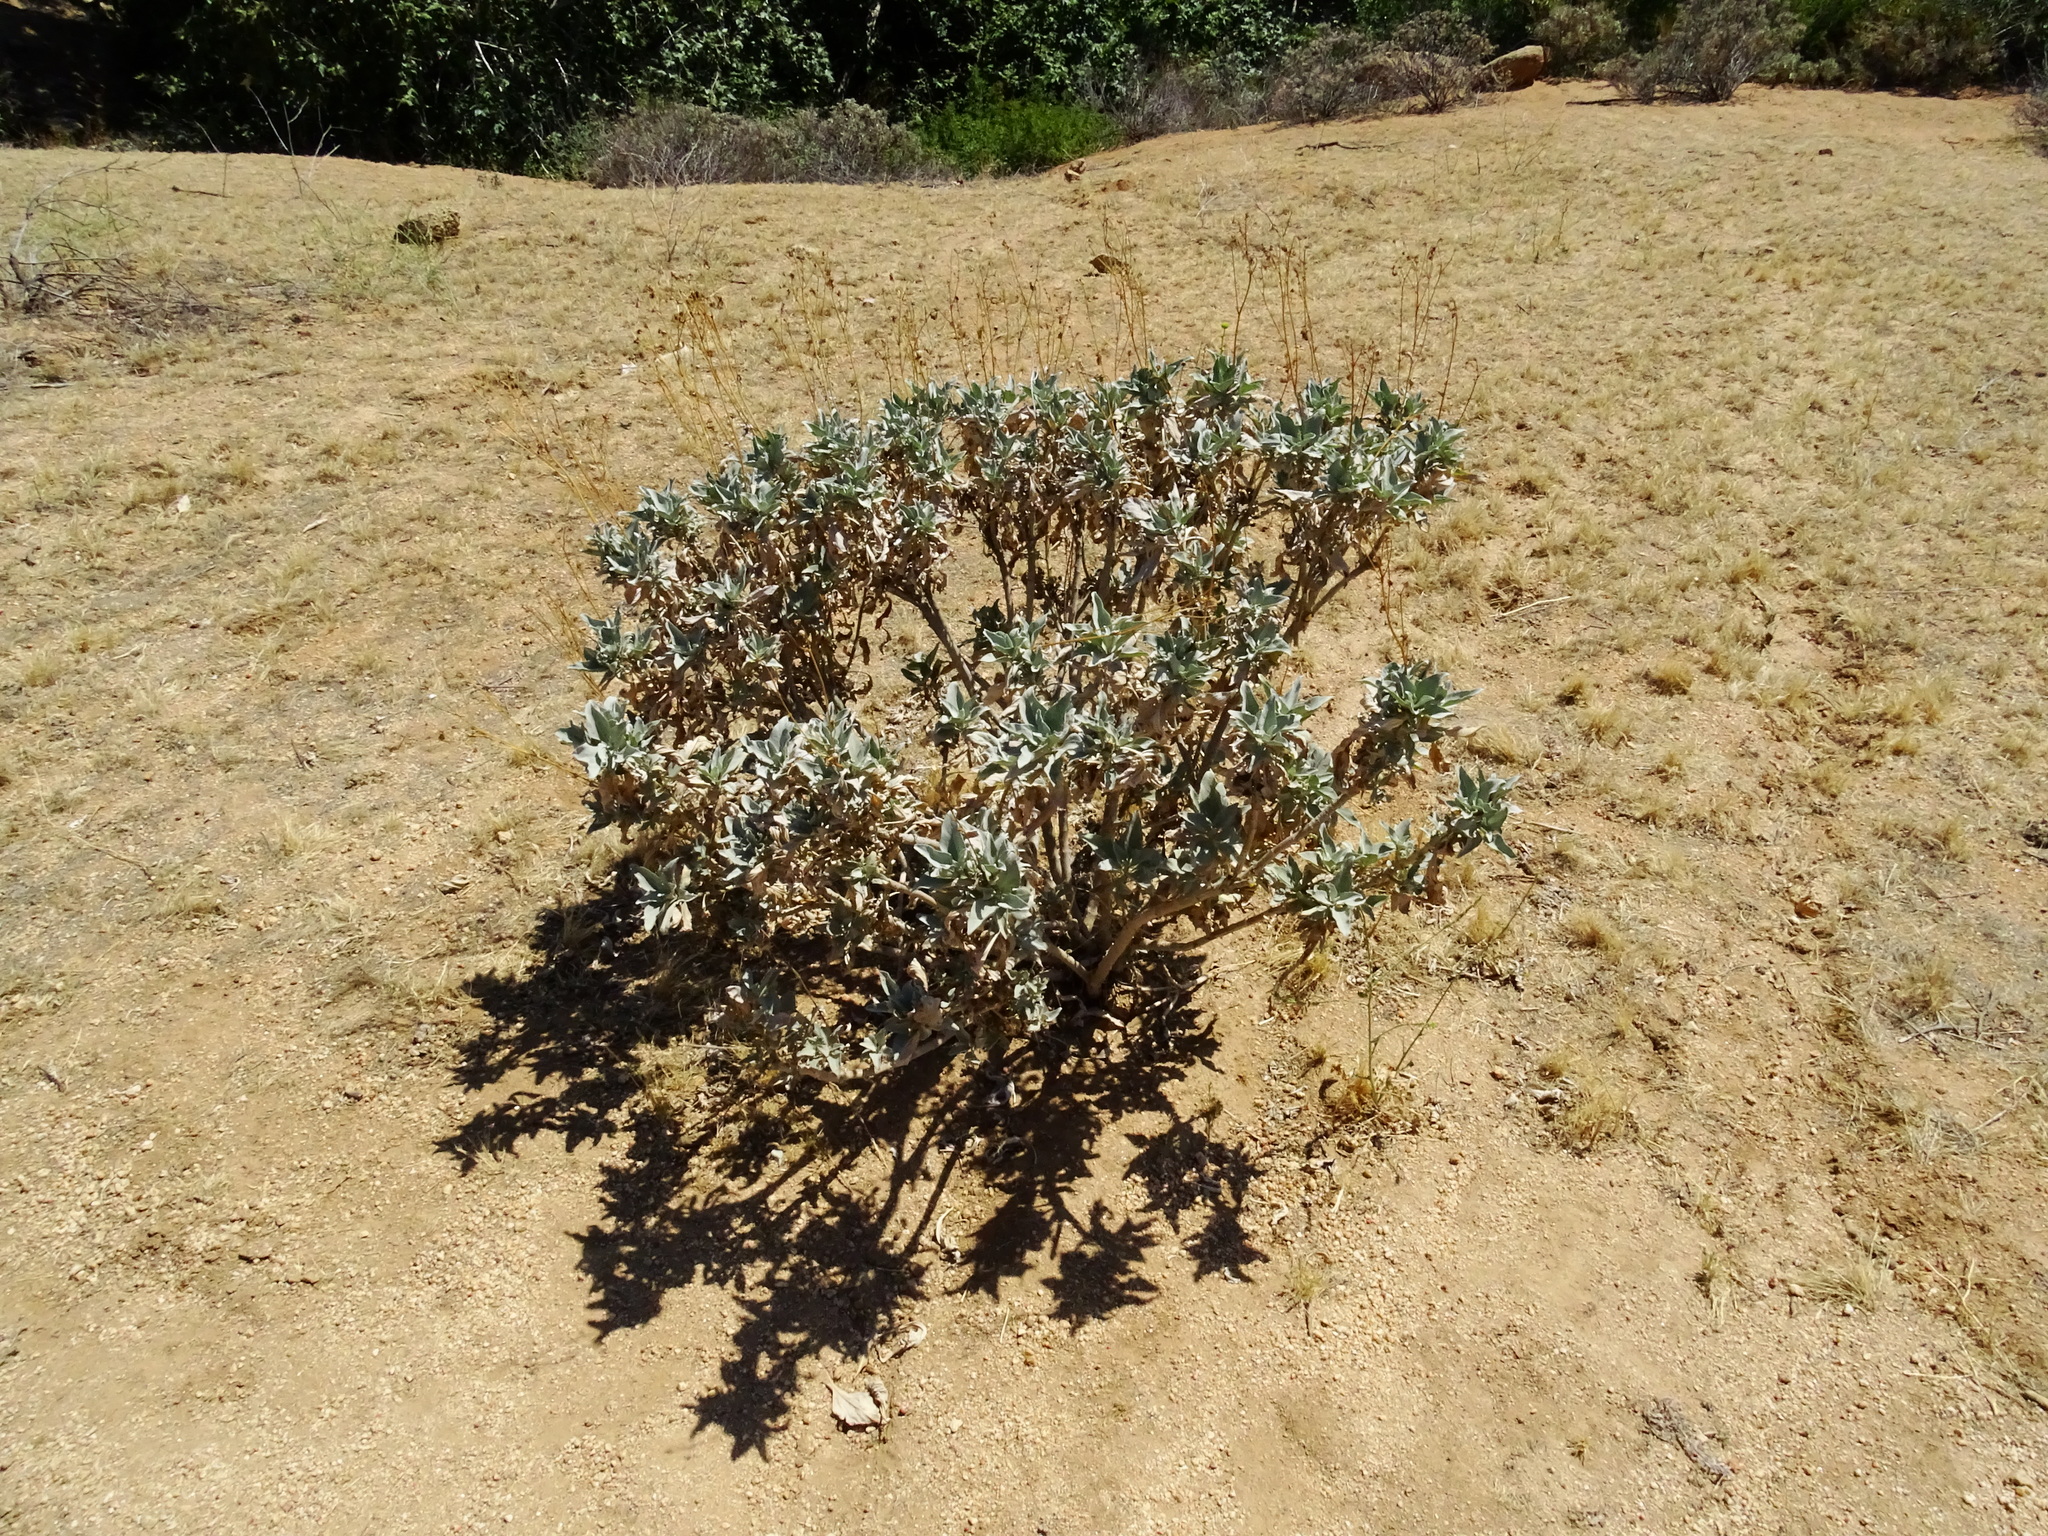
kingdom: Plantae
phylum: Tracheophyta
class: Magnoliopsida
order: Asterales
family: Asteraceae
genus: Encelia
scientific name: Encelia farinosa
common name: Brittlebush
